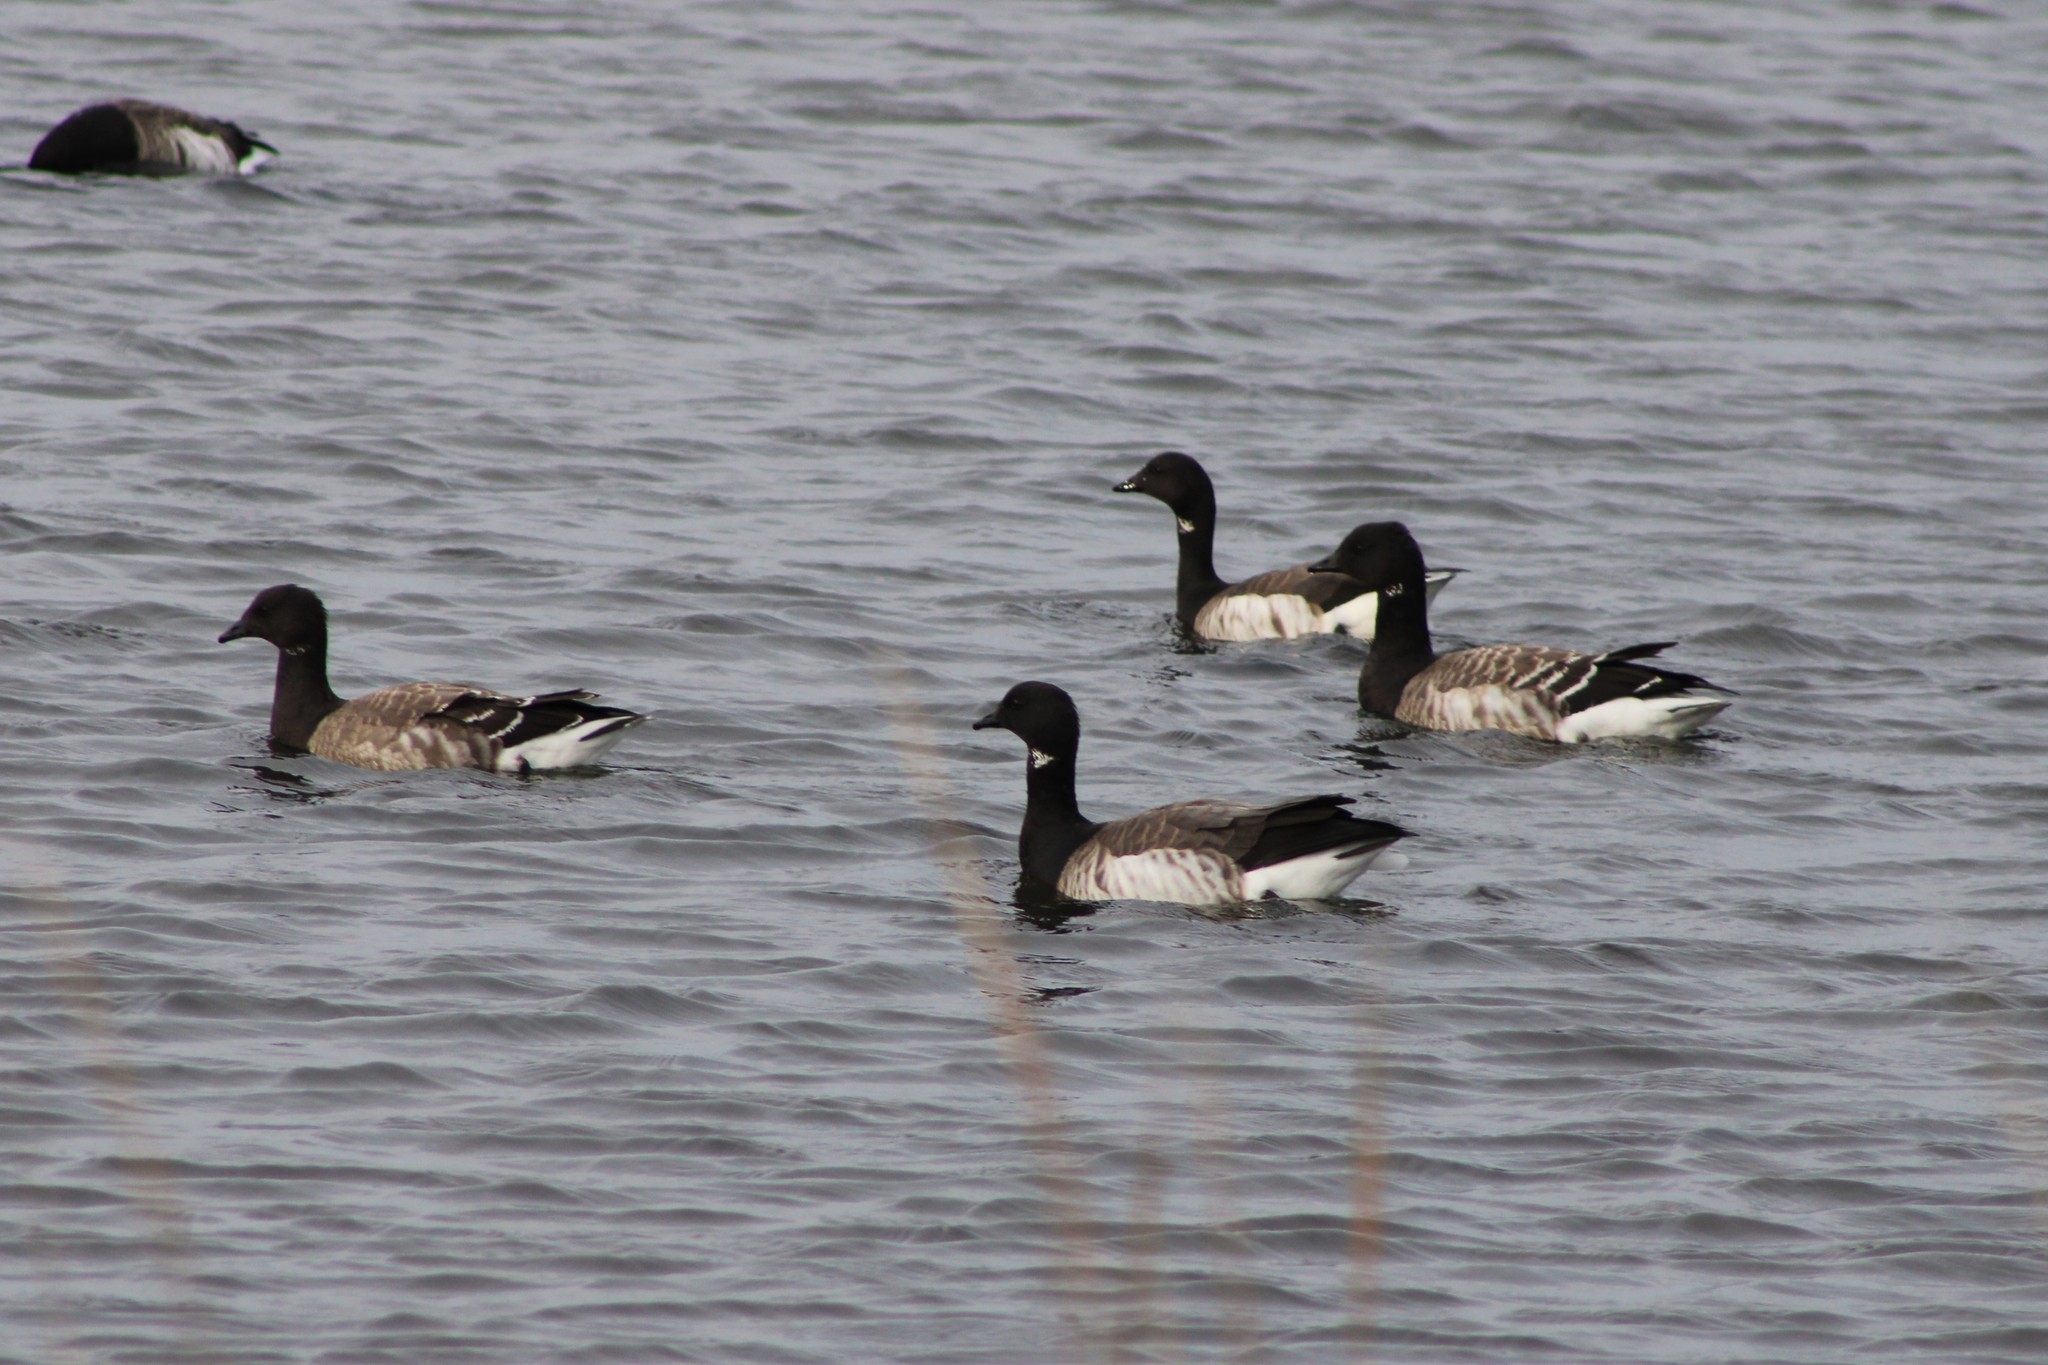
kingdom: Animalia
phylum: Chordata
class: Aves
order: Anseriformes
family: Anatidae
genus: Branta
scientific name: Branta bernicla
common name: Brant goose
